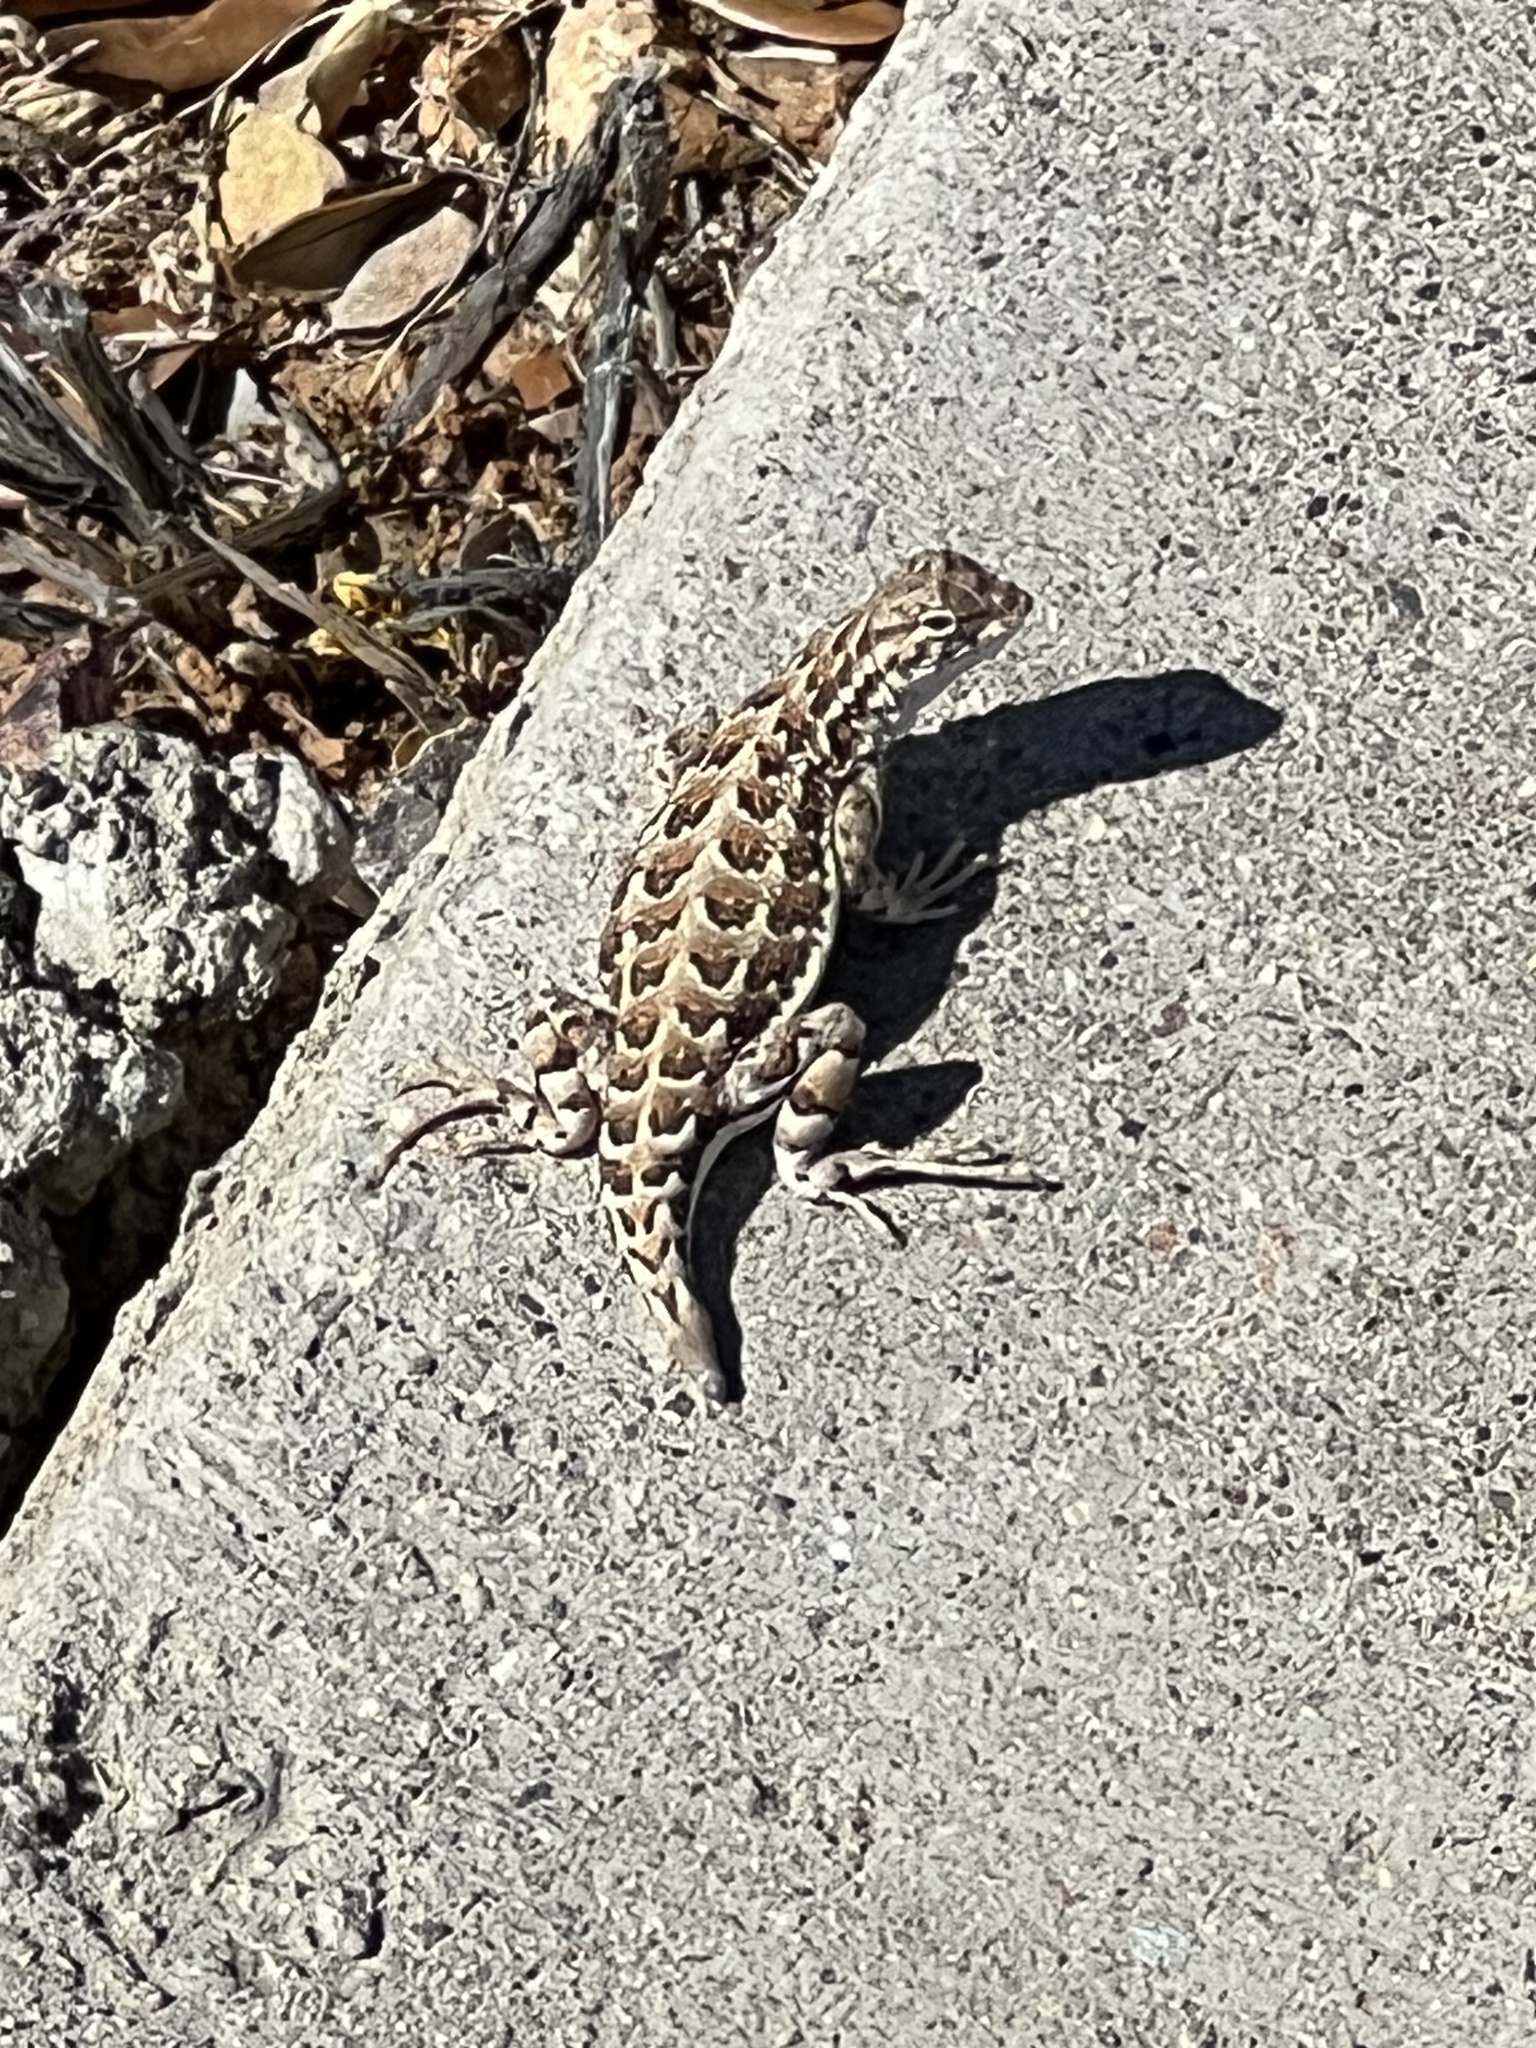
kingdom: Animalia
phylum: Chordata
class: Squamata
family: Phrynosomatidae
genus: Holbrookia
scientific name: Holbrookia elegans
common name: Elegant earless lizard
